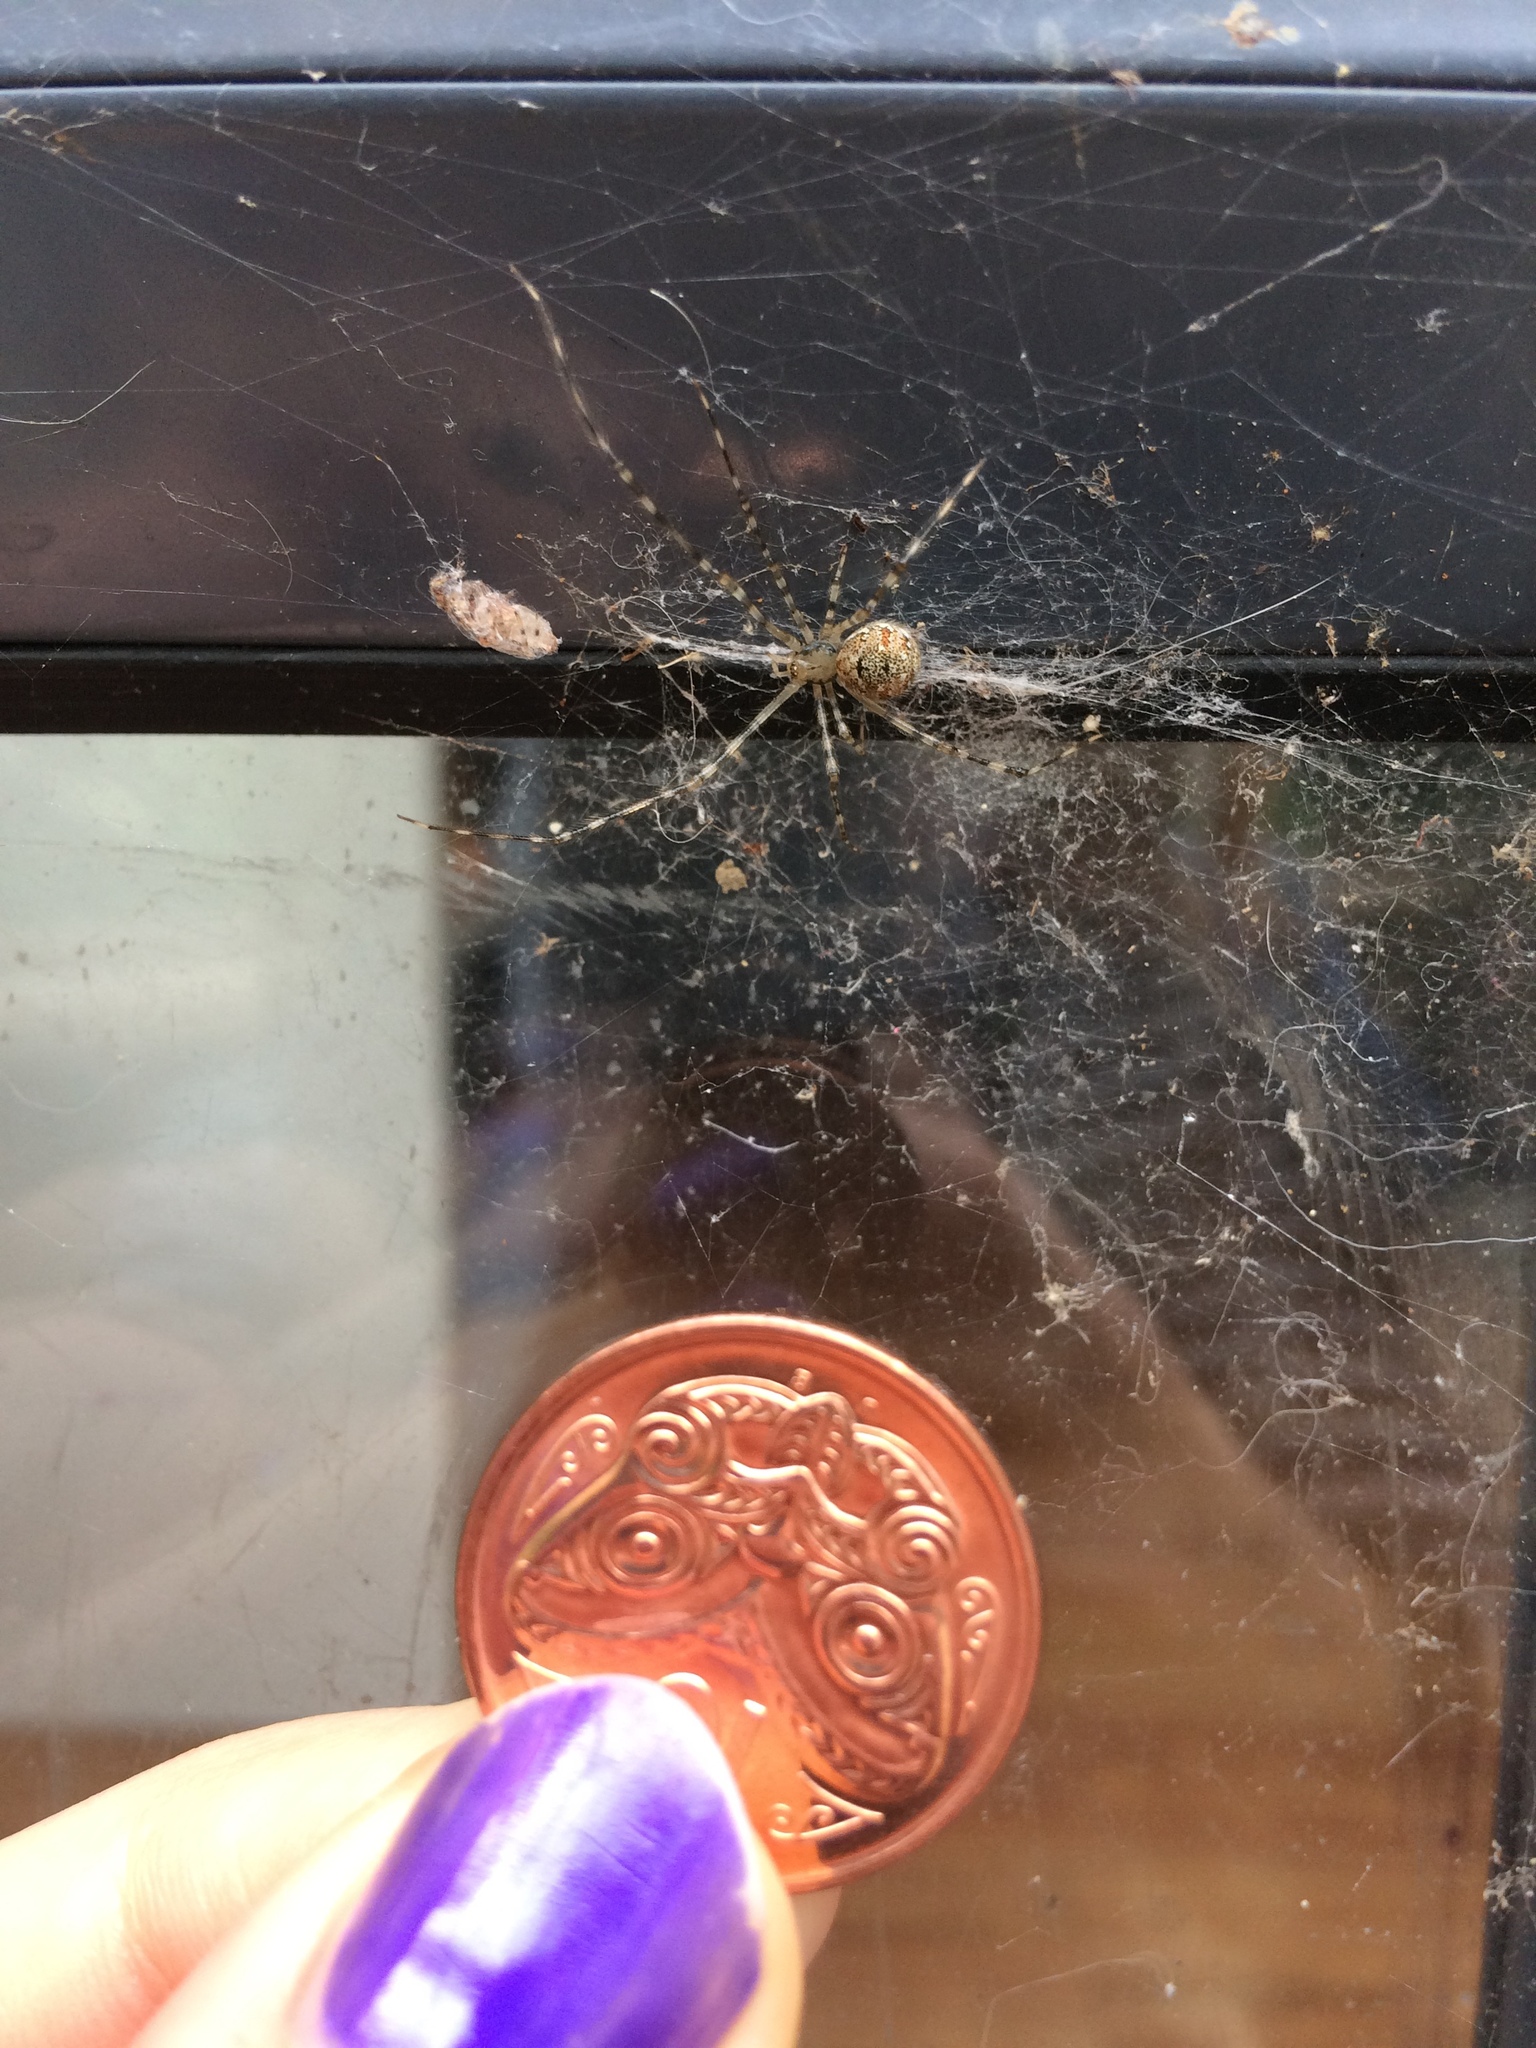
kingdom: Animalia
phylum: Arthropoda
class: Arachnida
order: Araneae
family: Theridiidae
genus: Cryptachaea
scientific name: Cryptachaea gigantipes
